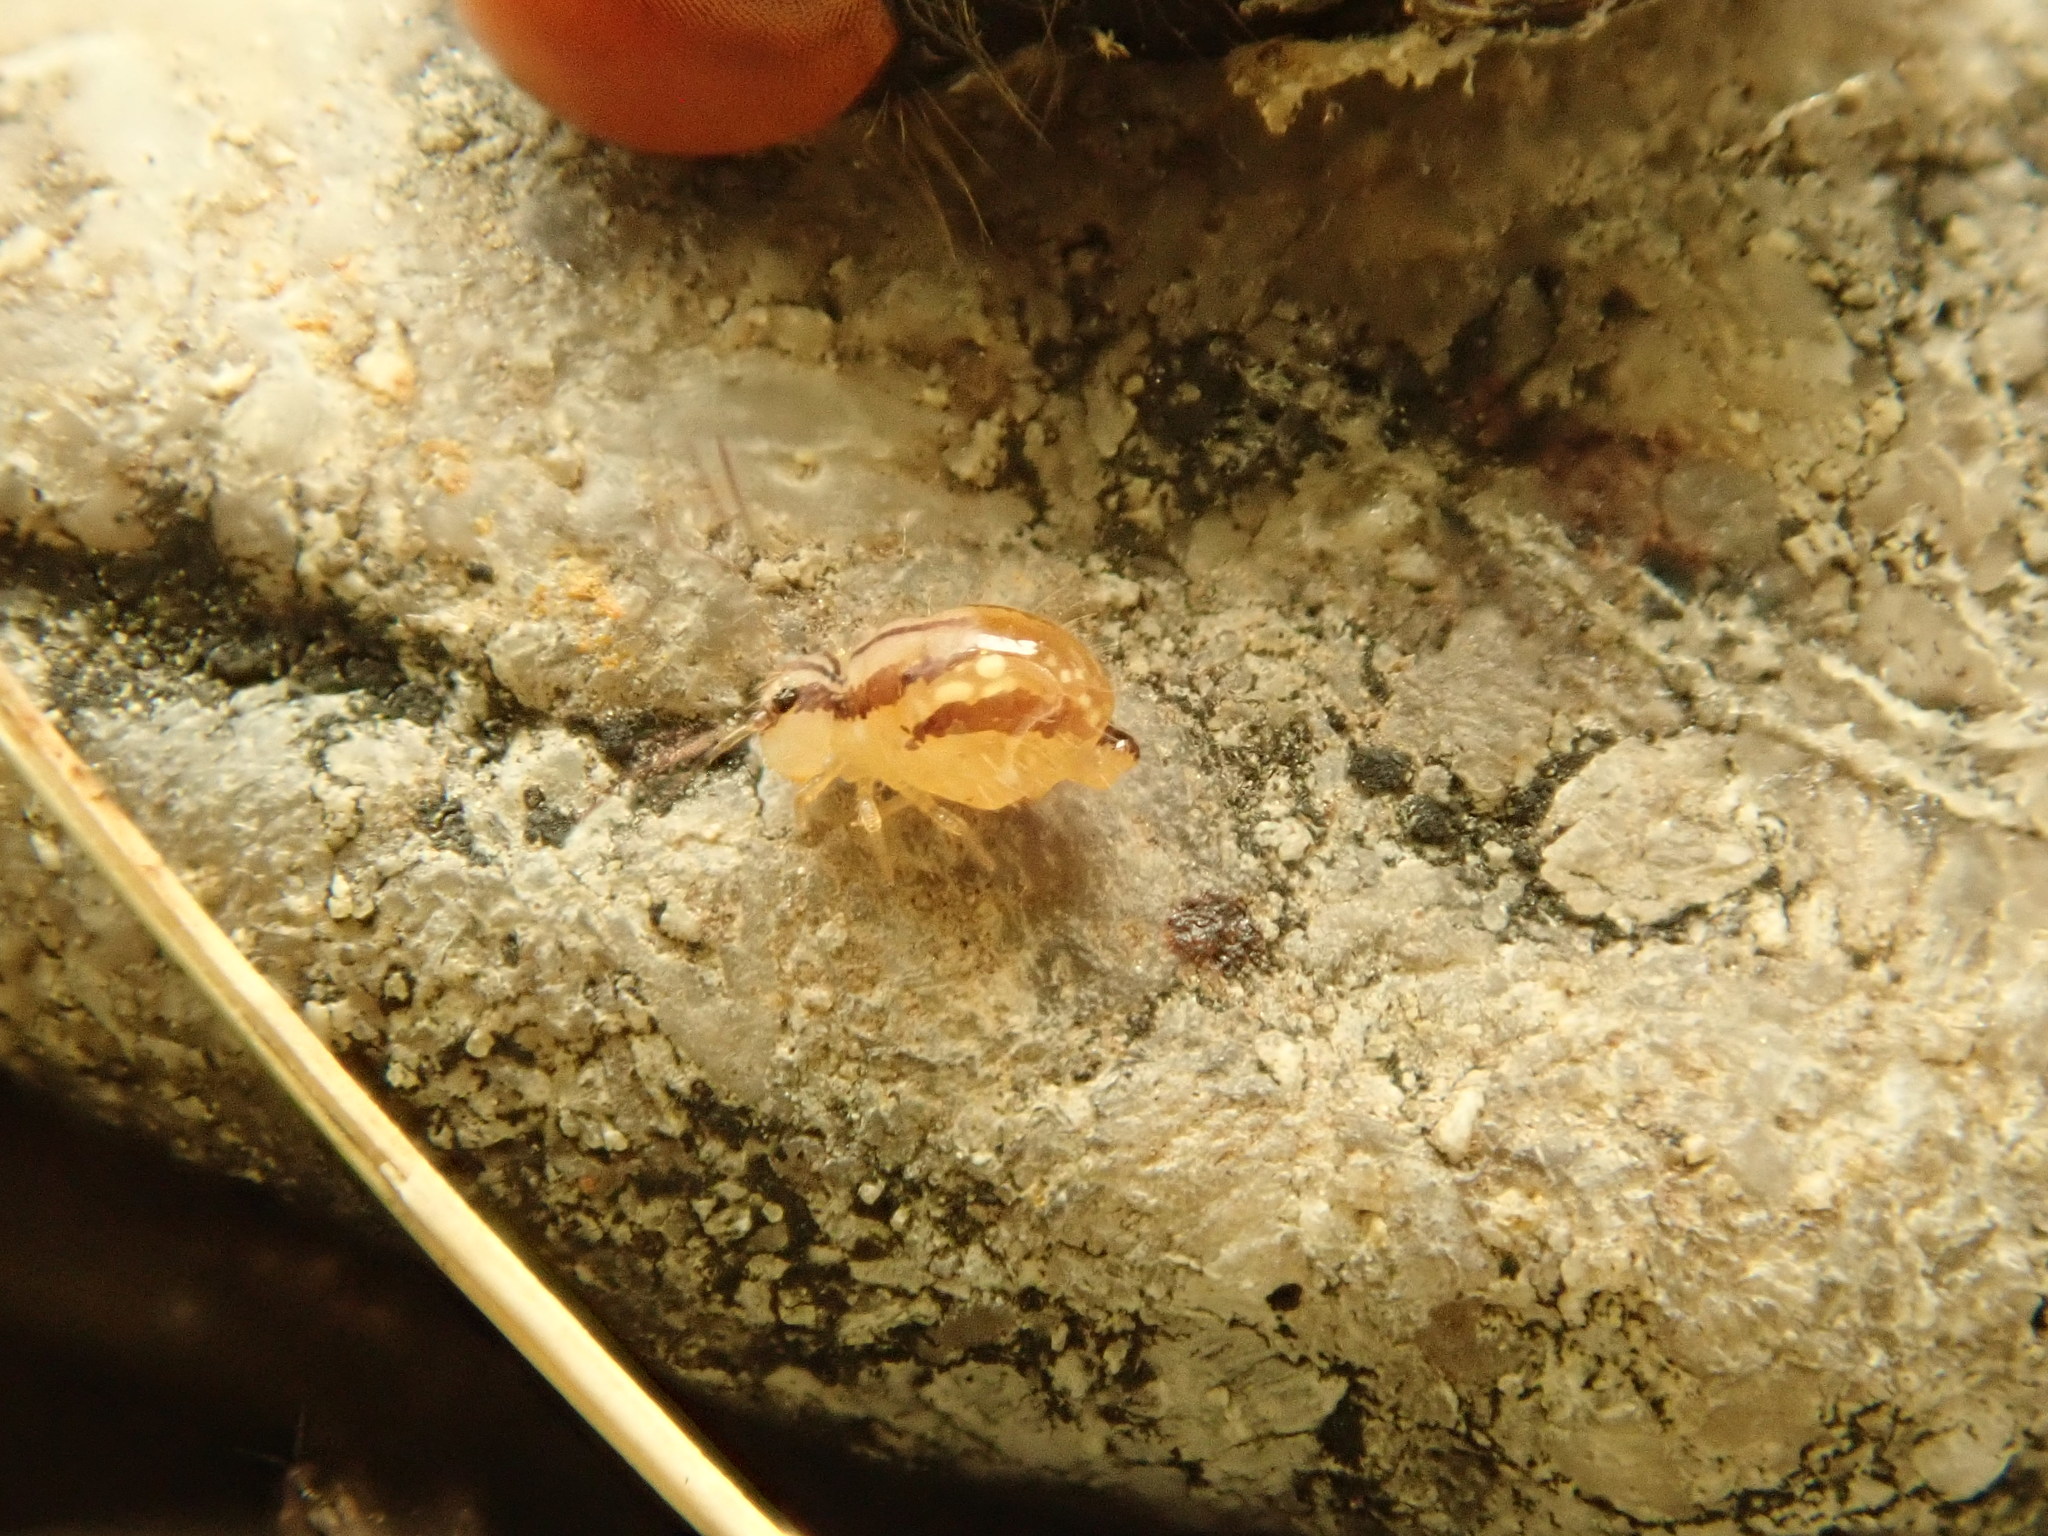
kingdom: Animalia
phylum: Arthropoda
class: Collembola
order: Symphypleona
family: Sminthuridae
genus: Sminthurus
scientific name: Sminthurus mencenbergae
